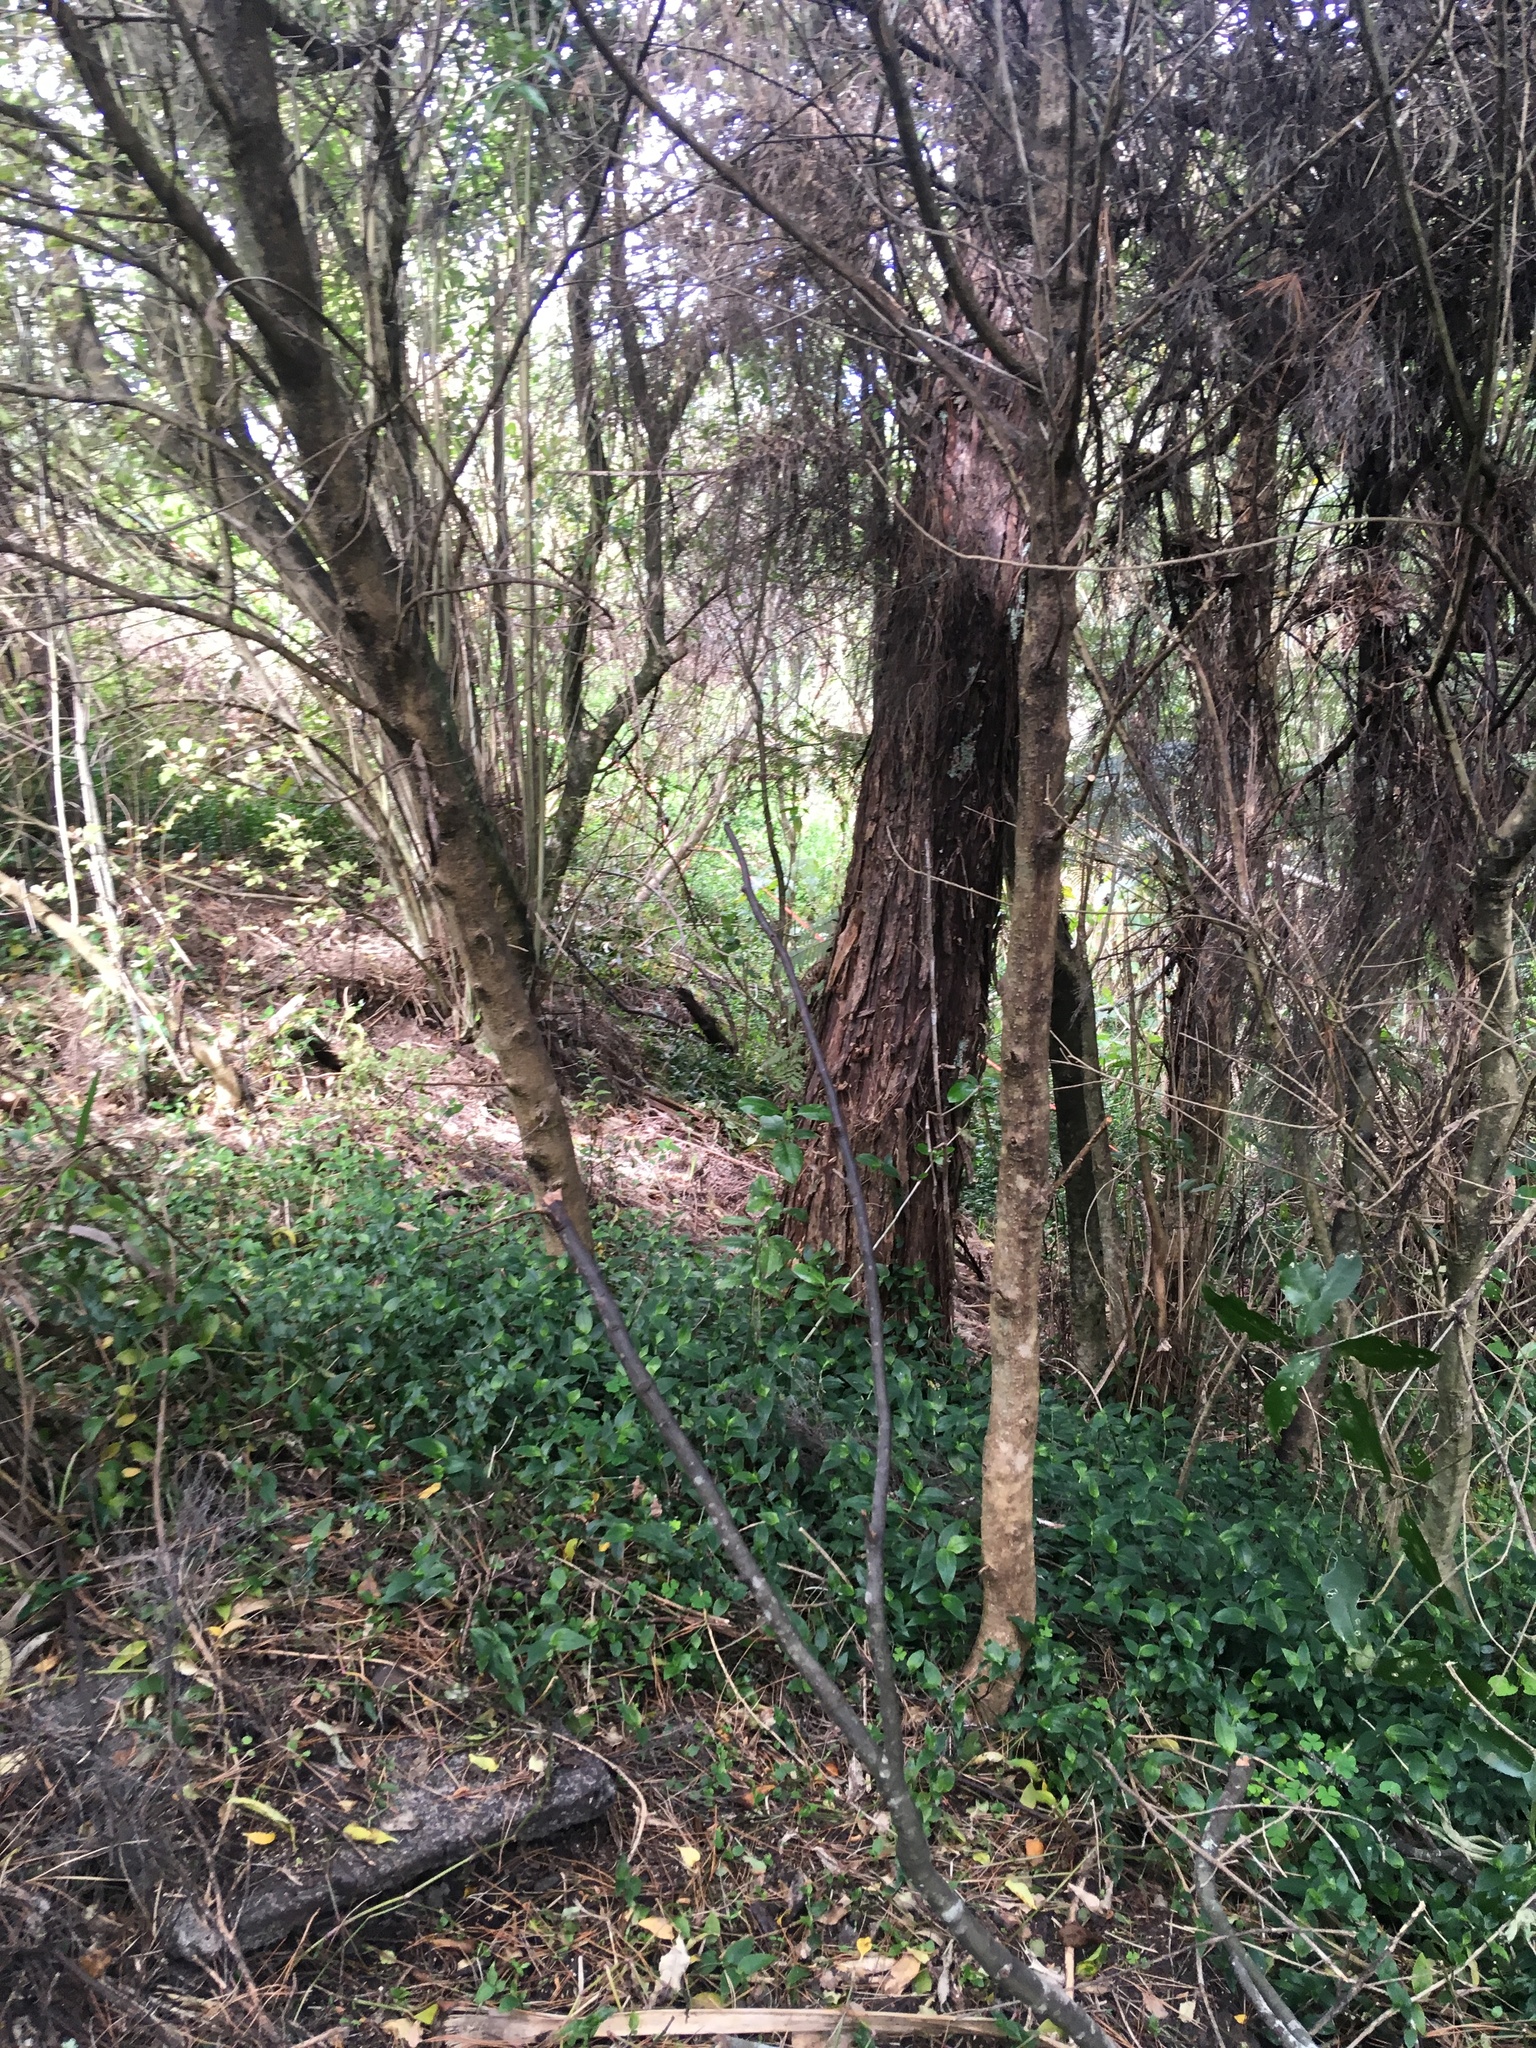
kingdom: Plantae
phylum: Tracheophyta
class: Liliopsida
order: Commelinales
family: Commelinaceae
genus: Tradescantia
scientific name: Tradescantia fluminensis
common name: Wandering-jew
